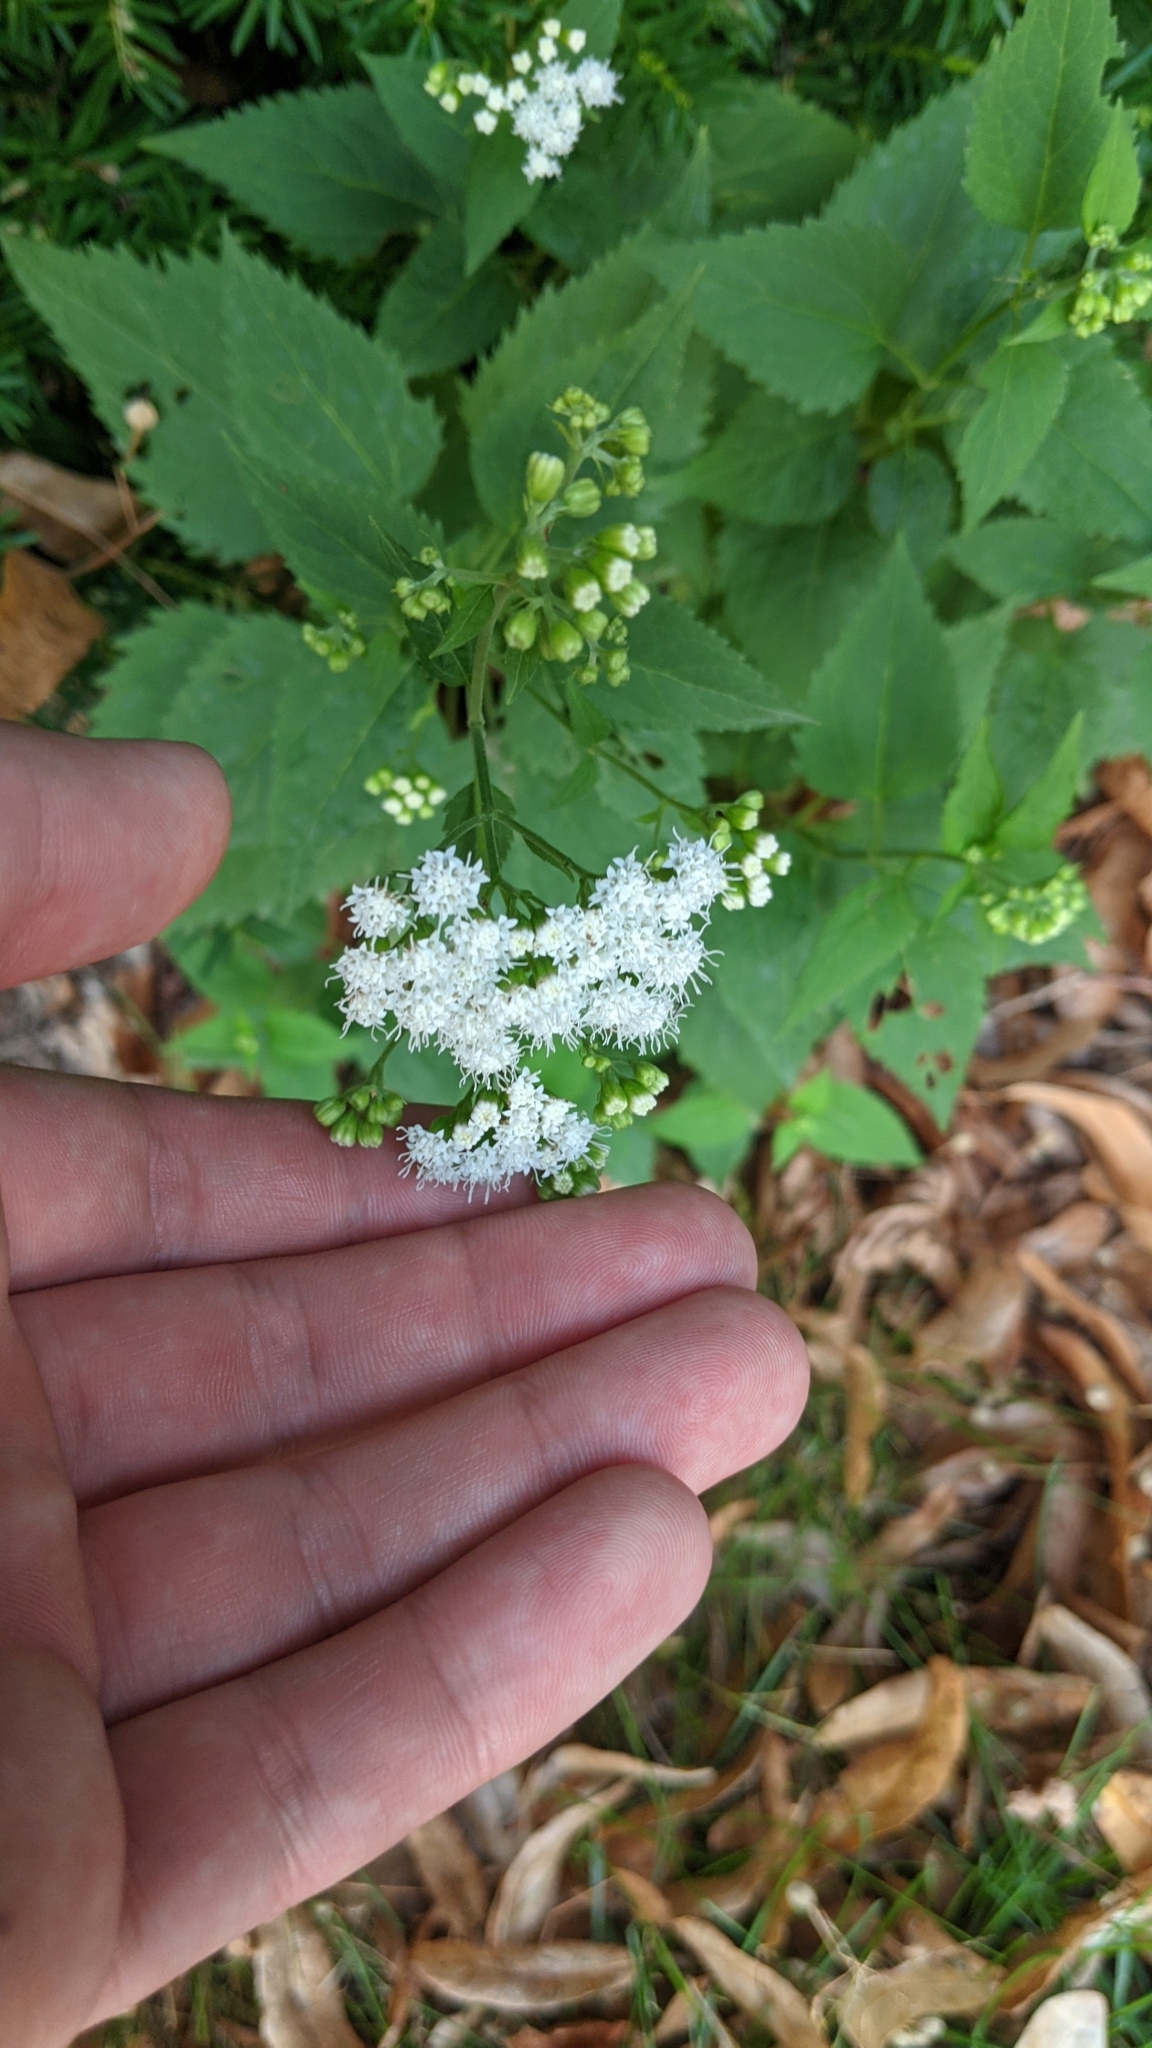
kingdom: Plantae
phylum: Tracheophyta
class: Magnoliopsida
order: Asterales
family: Asteraceae
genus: Ageratina
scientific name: Ageratina altissima
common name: White snakeroot
